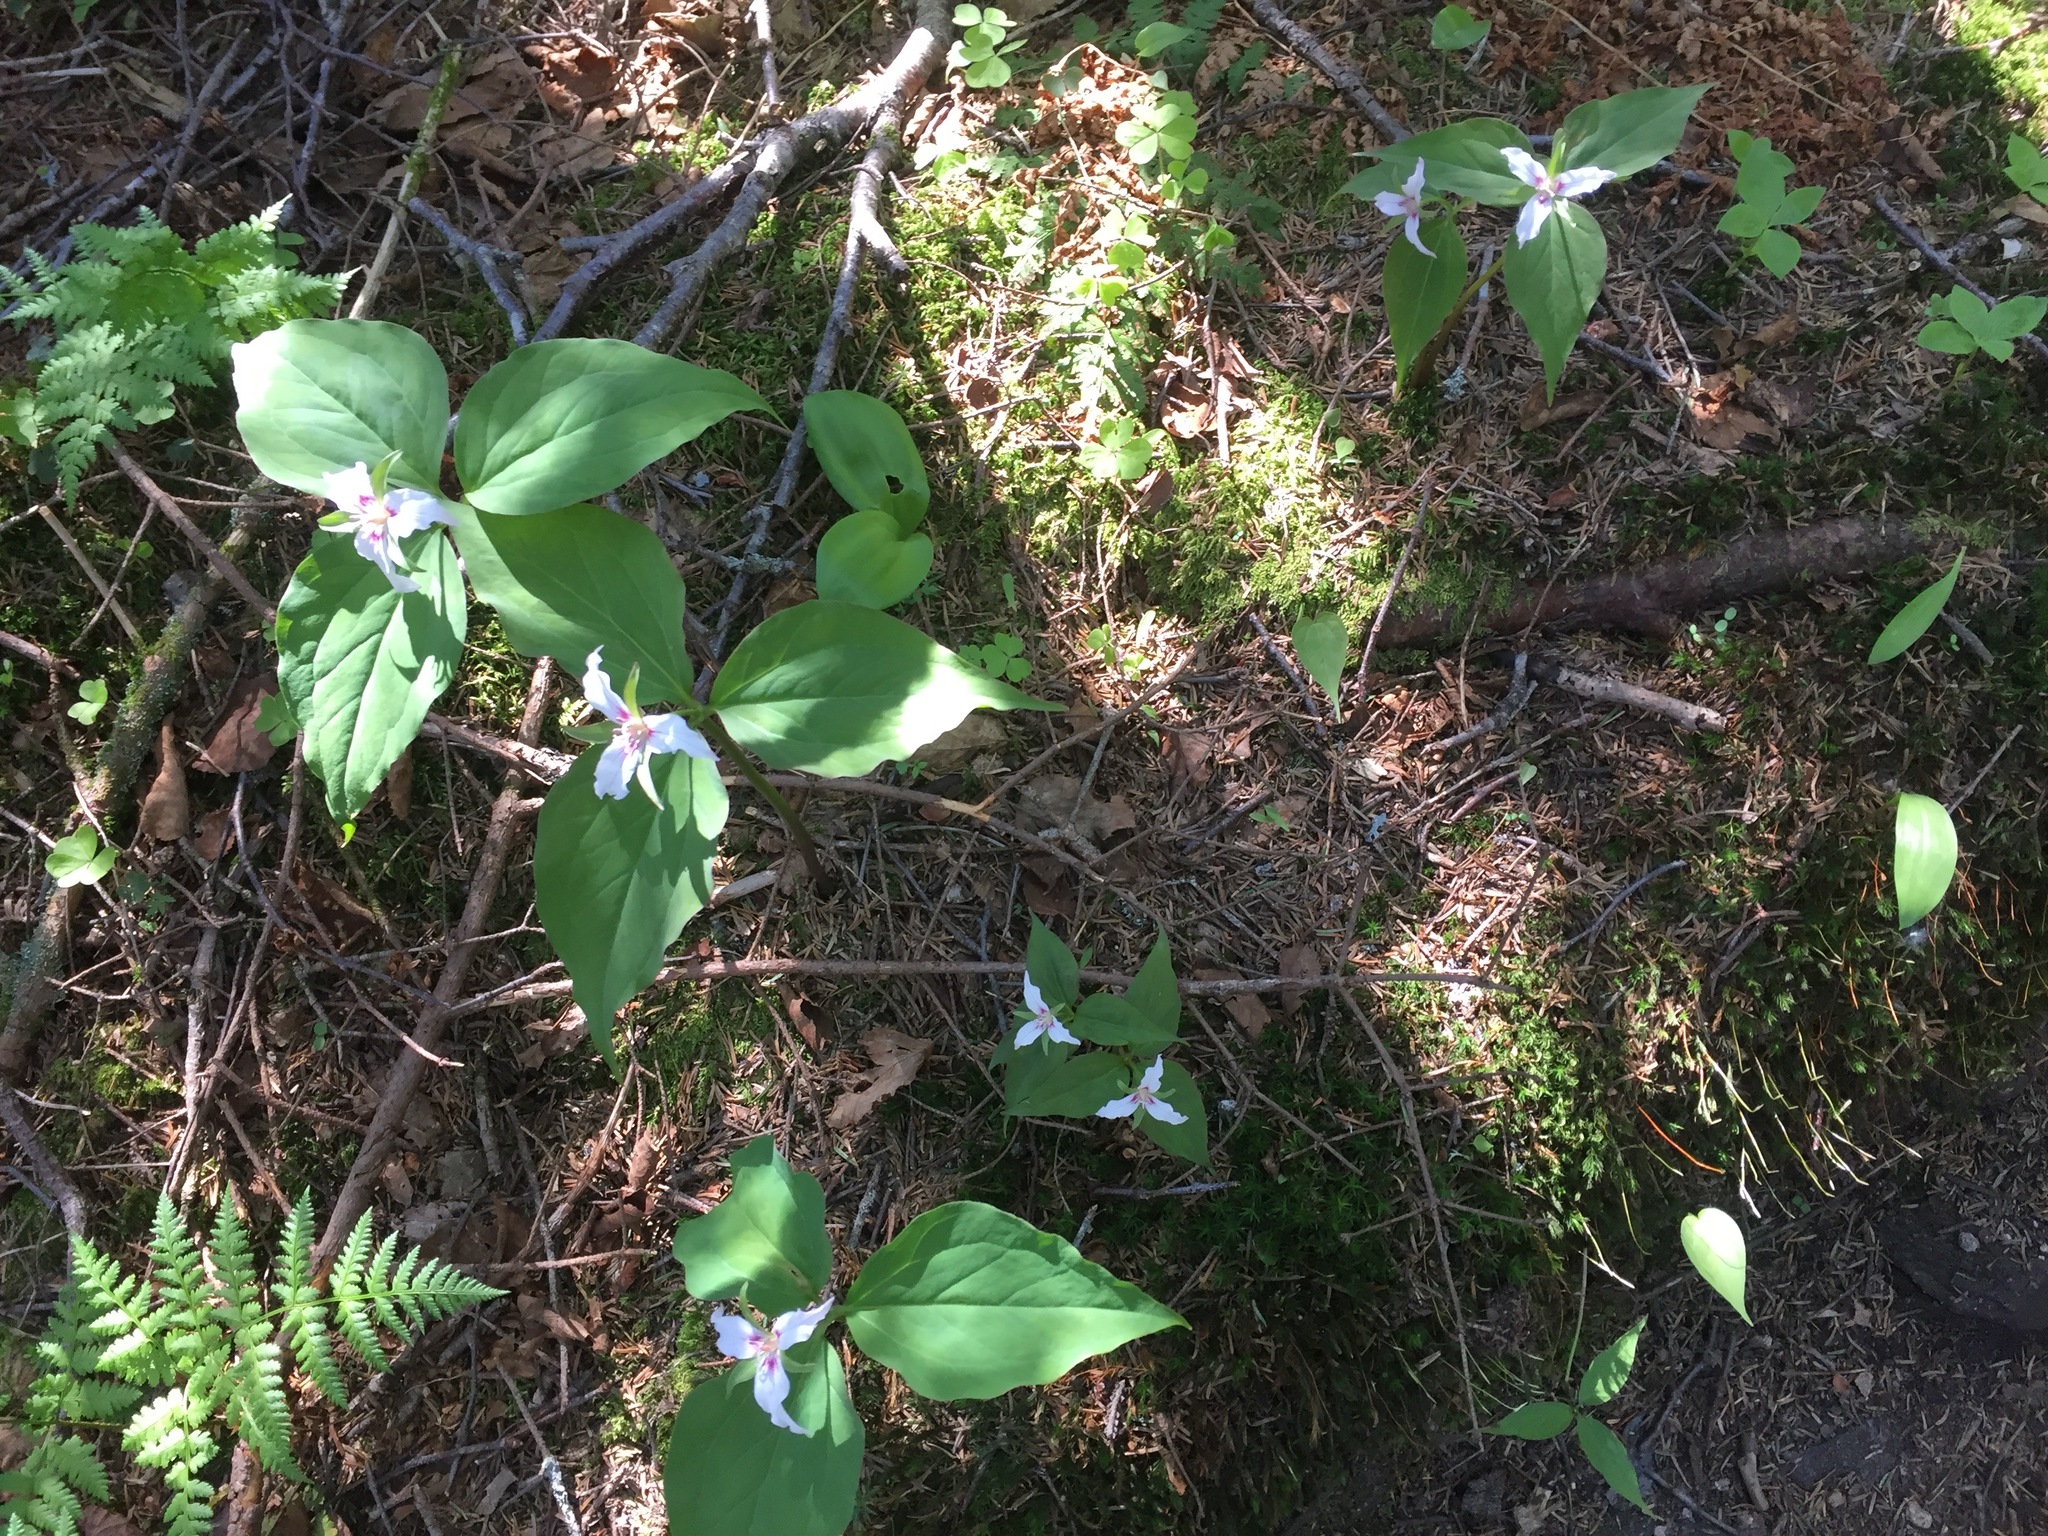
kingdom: Plantae
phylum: Tracheophyta
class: Liliopsida
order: Liliales
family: Melanthiaceae
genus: Trillium
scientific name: Trillium undulatum
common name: Paint trillium
